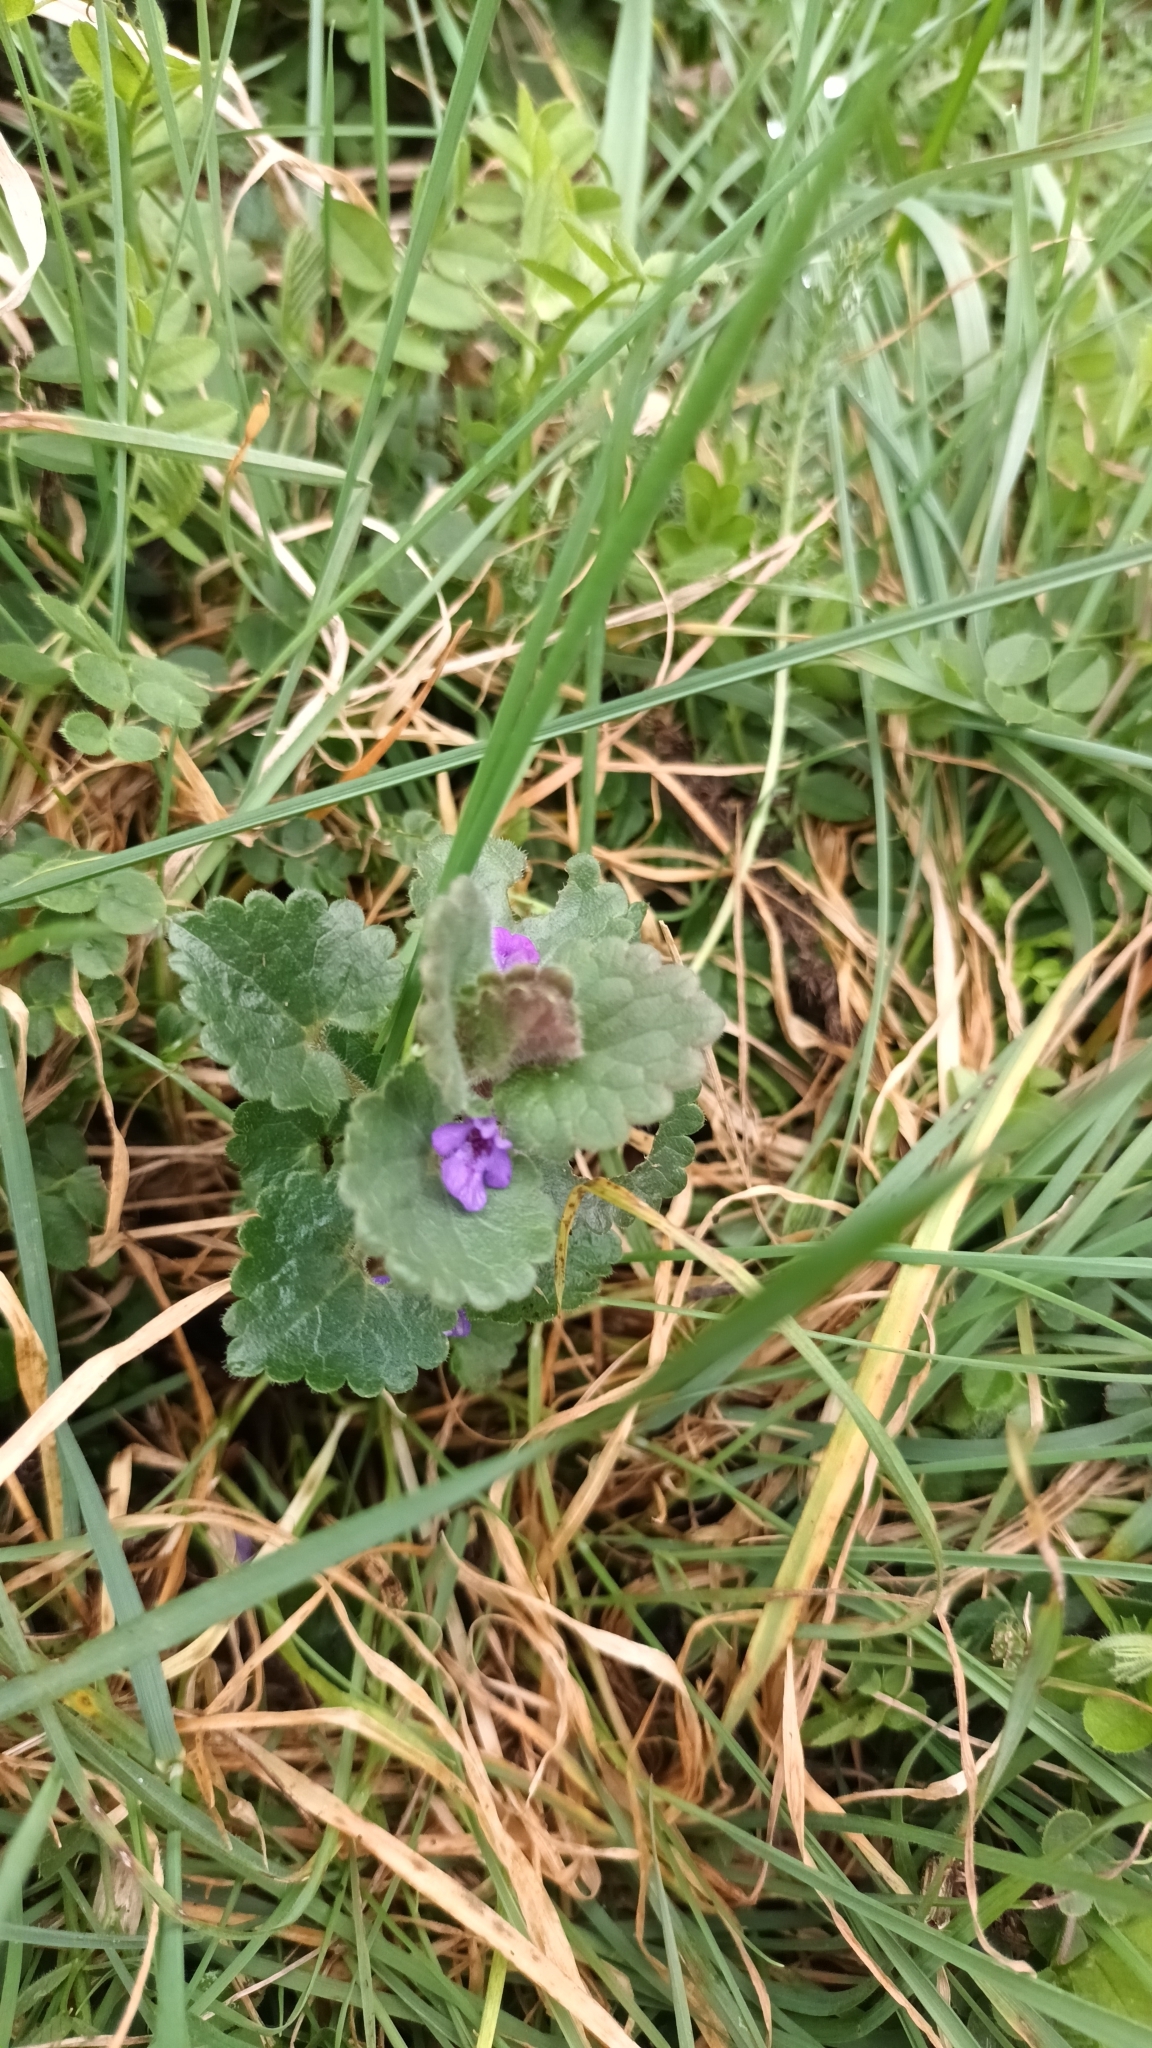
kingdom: Plantae
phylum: Tracheophyta
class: Magnoliopsida
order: Lamiales
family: Lamiaceae
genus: Glechoma
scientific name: Glechoma hederacea
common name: Ground ivy
